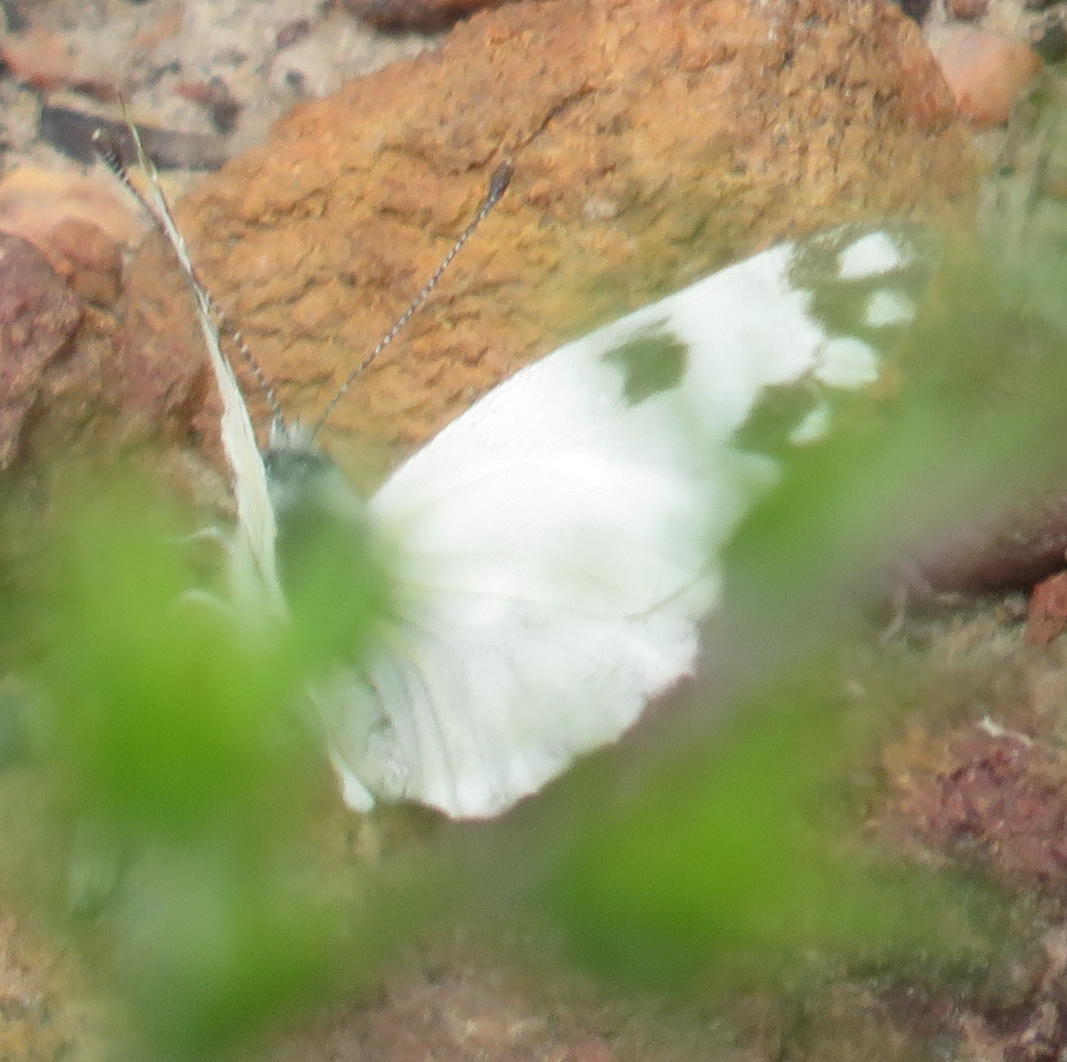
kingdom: Animalia
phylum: Arthropoda
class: Insecta
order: Lepidoptera
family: Pieridae
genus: Pontia
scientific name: Pontia helice
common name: Meadow white
